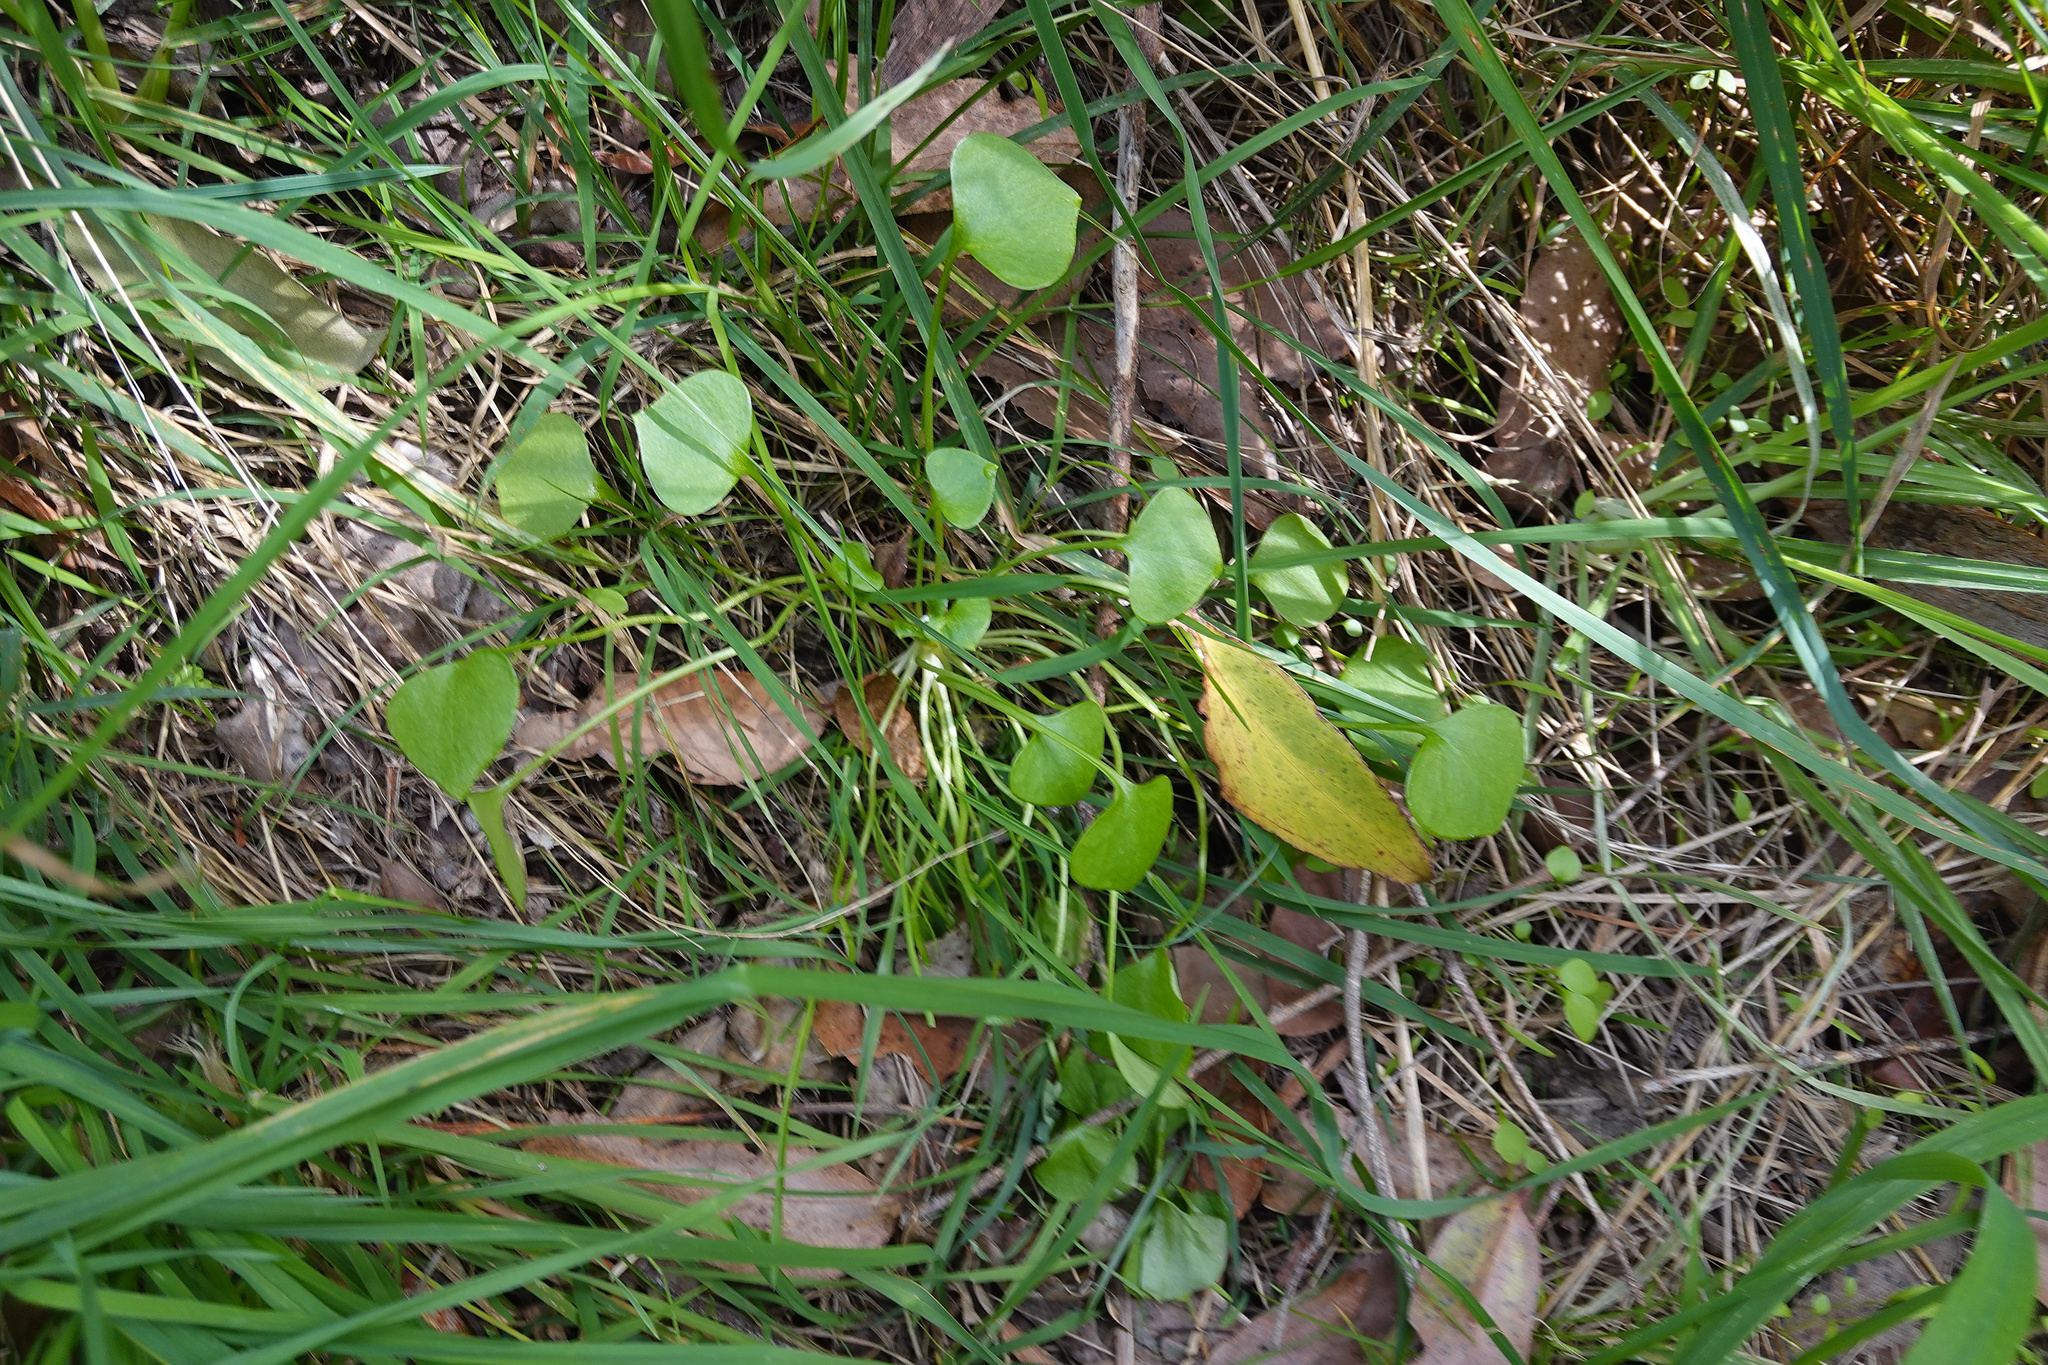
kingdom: Plantae
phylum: Tracheophyta
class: Magnoliopsida
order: Caryophyllales
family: Montiaceae
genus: Claytonia
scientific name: Claytonia perfoliata
